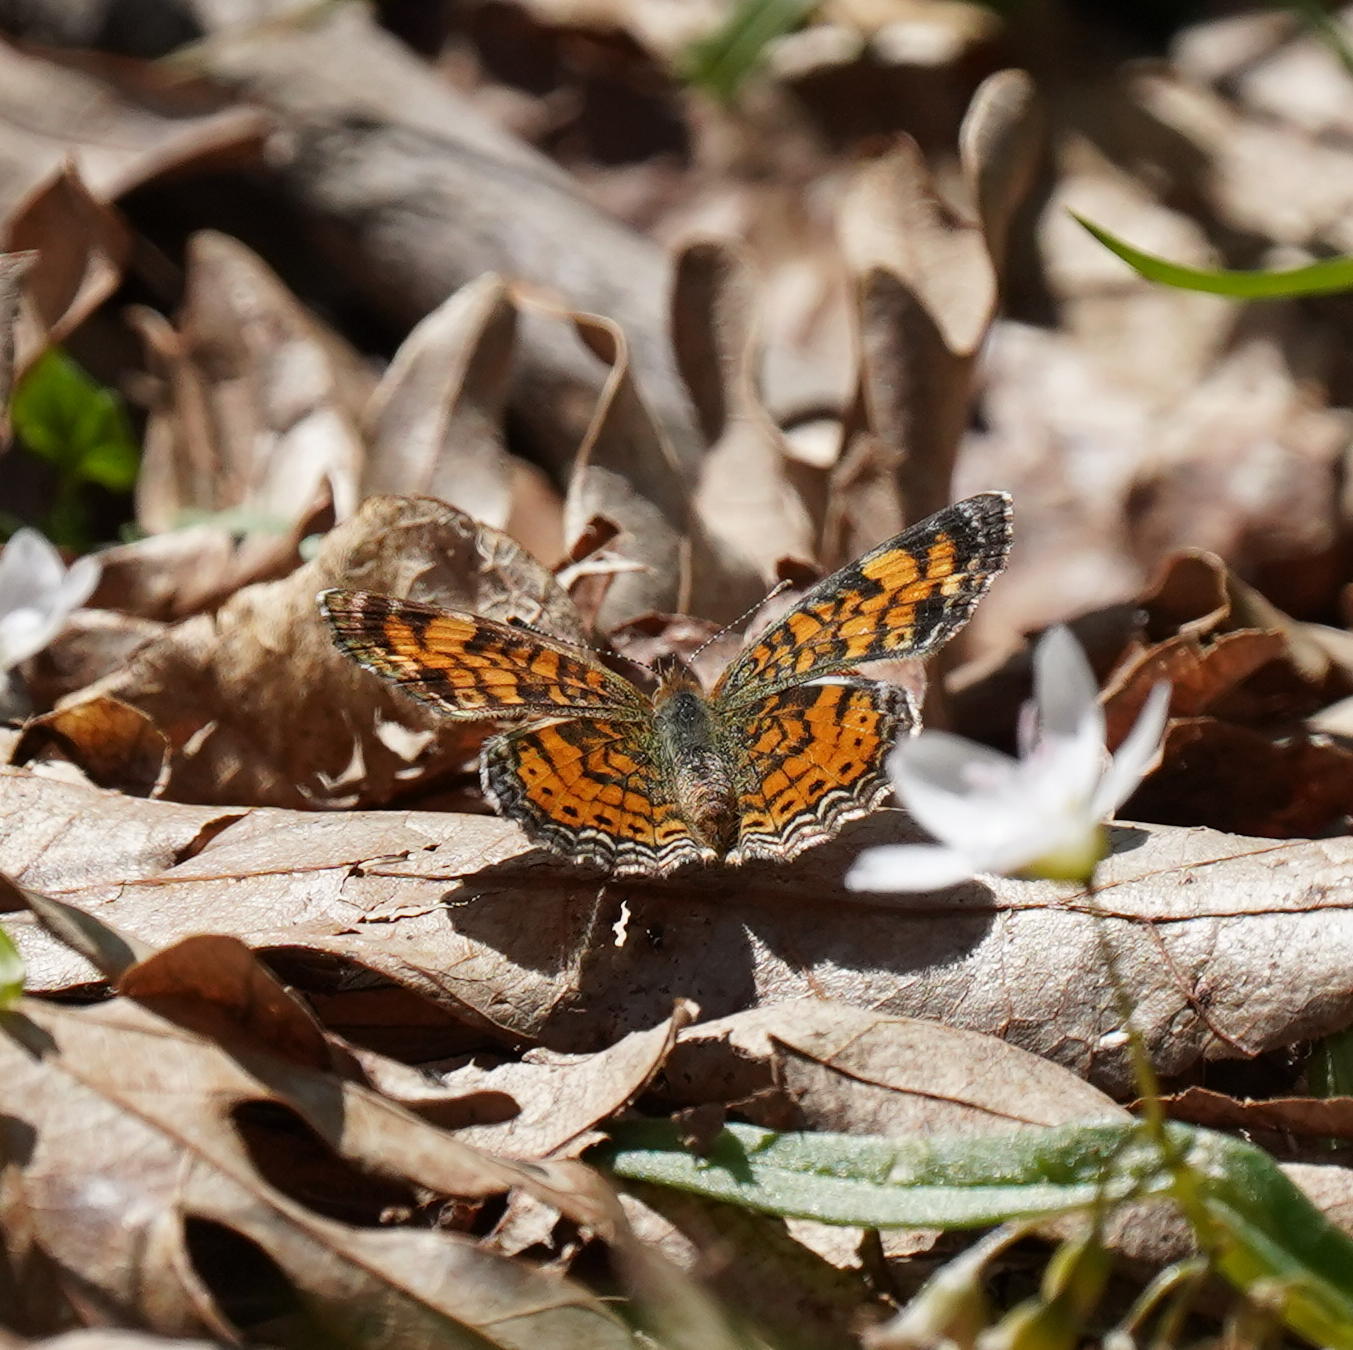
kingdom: Animalia
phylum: Arthropoda
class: Insecta
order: Lepidoptera
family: Nymphalidae
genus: Phyciodes
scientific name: Phyciodes tharos
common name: Pearl crescent
